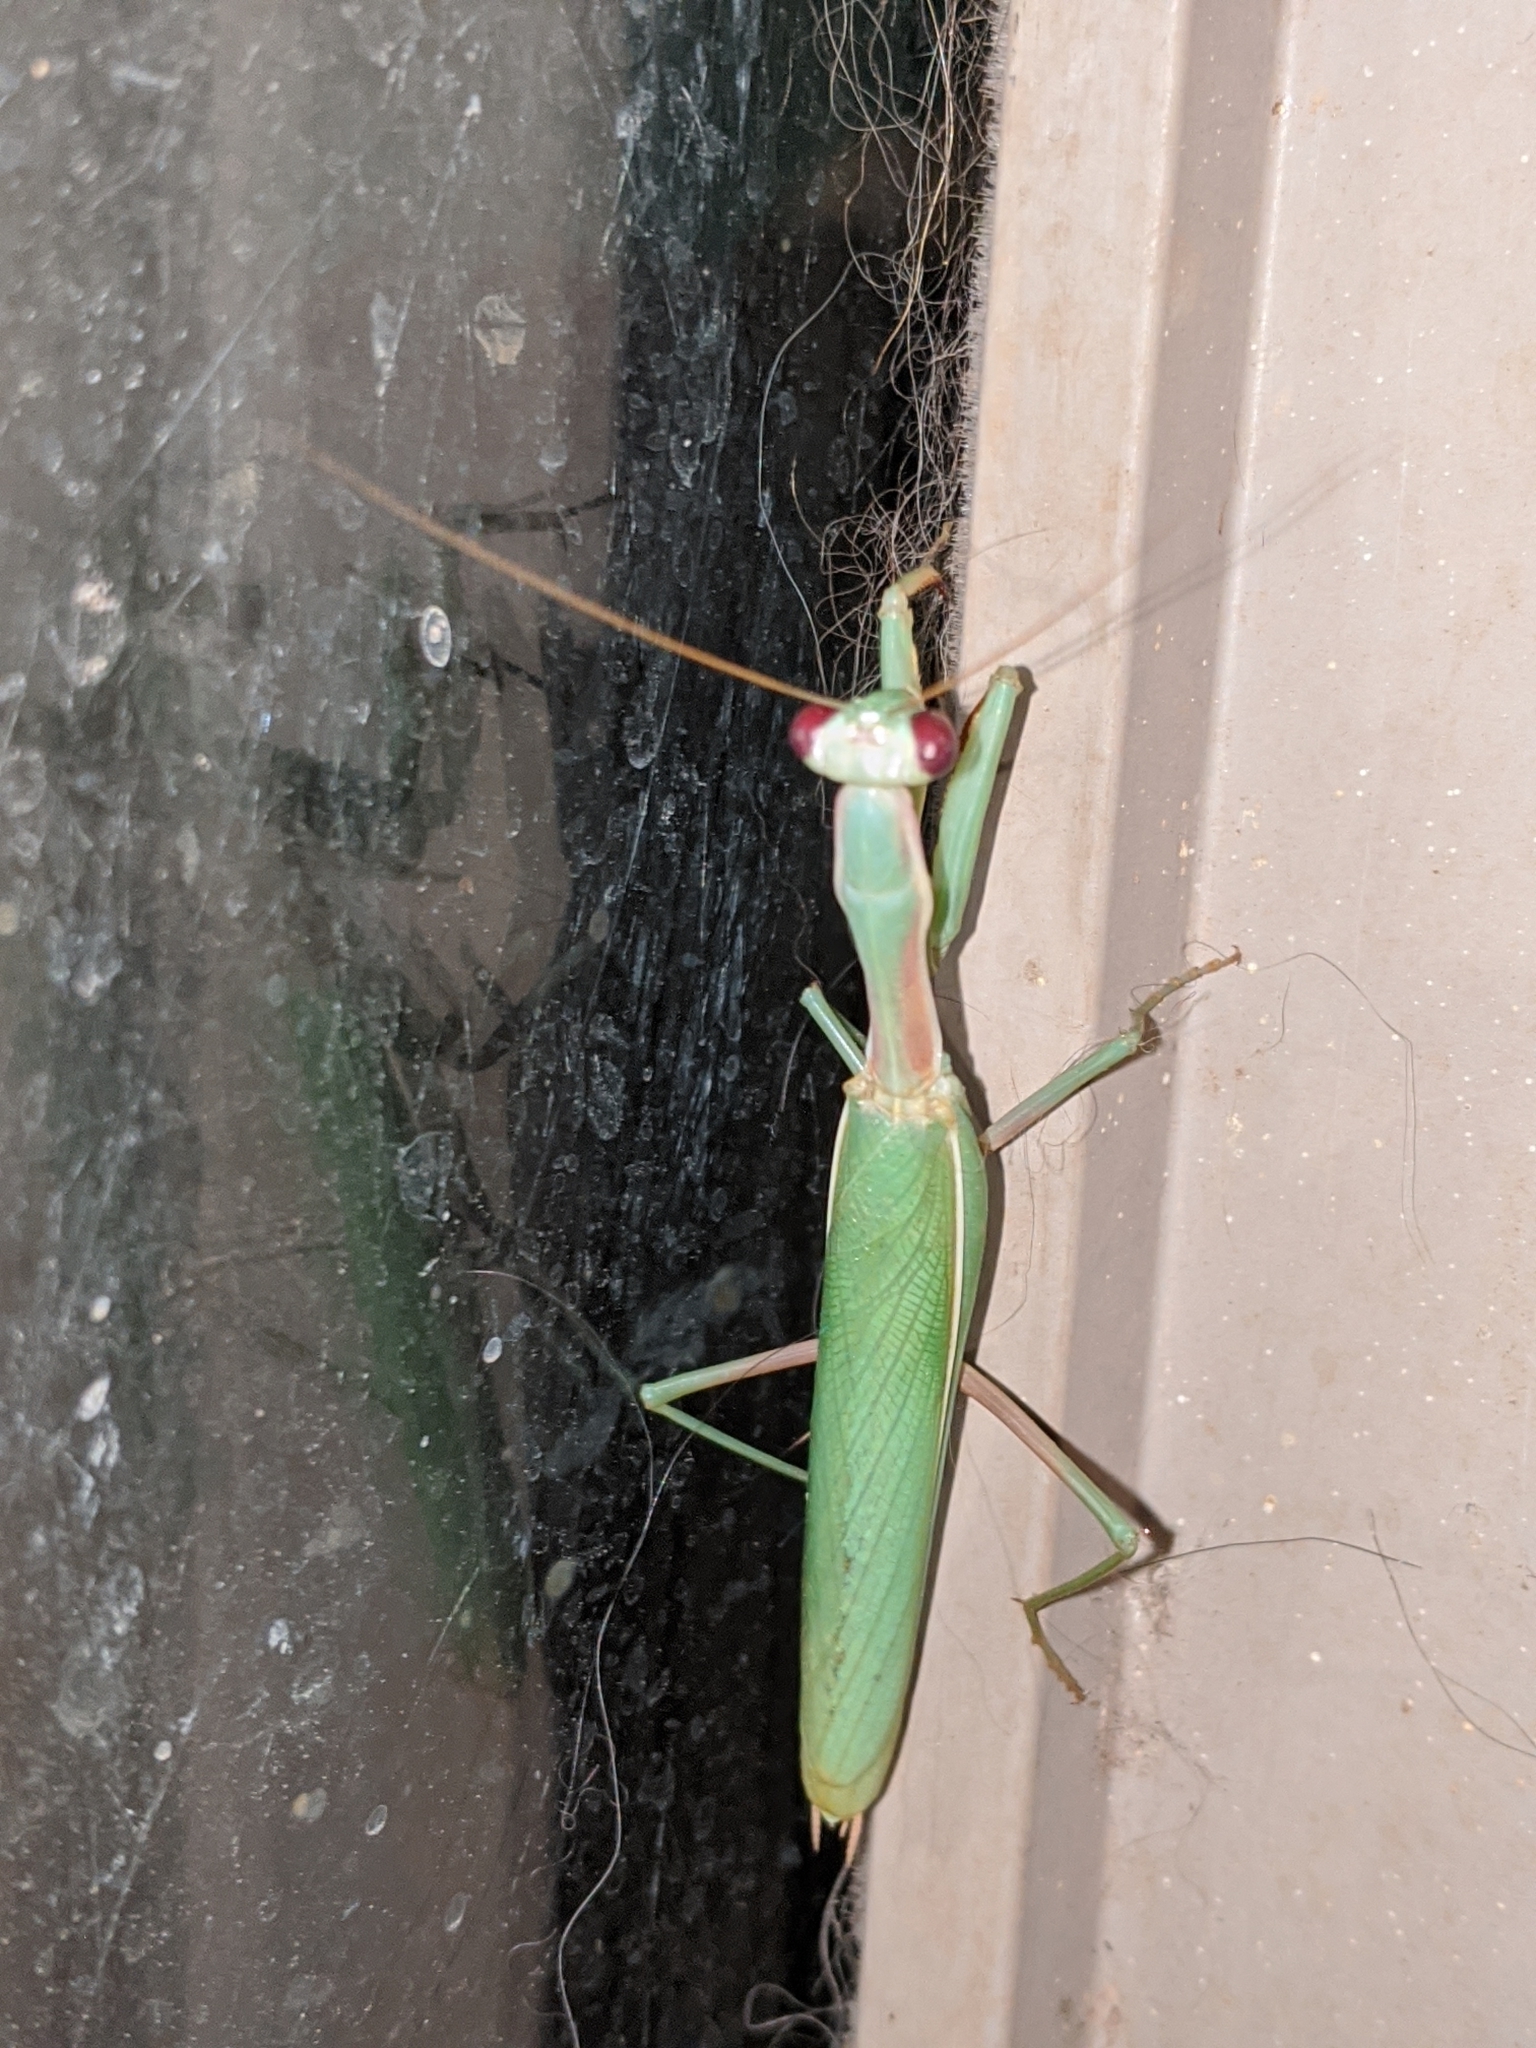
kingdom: Animalia
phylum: Arthropoda
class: Insecta
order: Mantodea
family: Eremiaphilidae
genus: Iris
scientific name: Iris oratoria
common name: Mediterranean mantis
